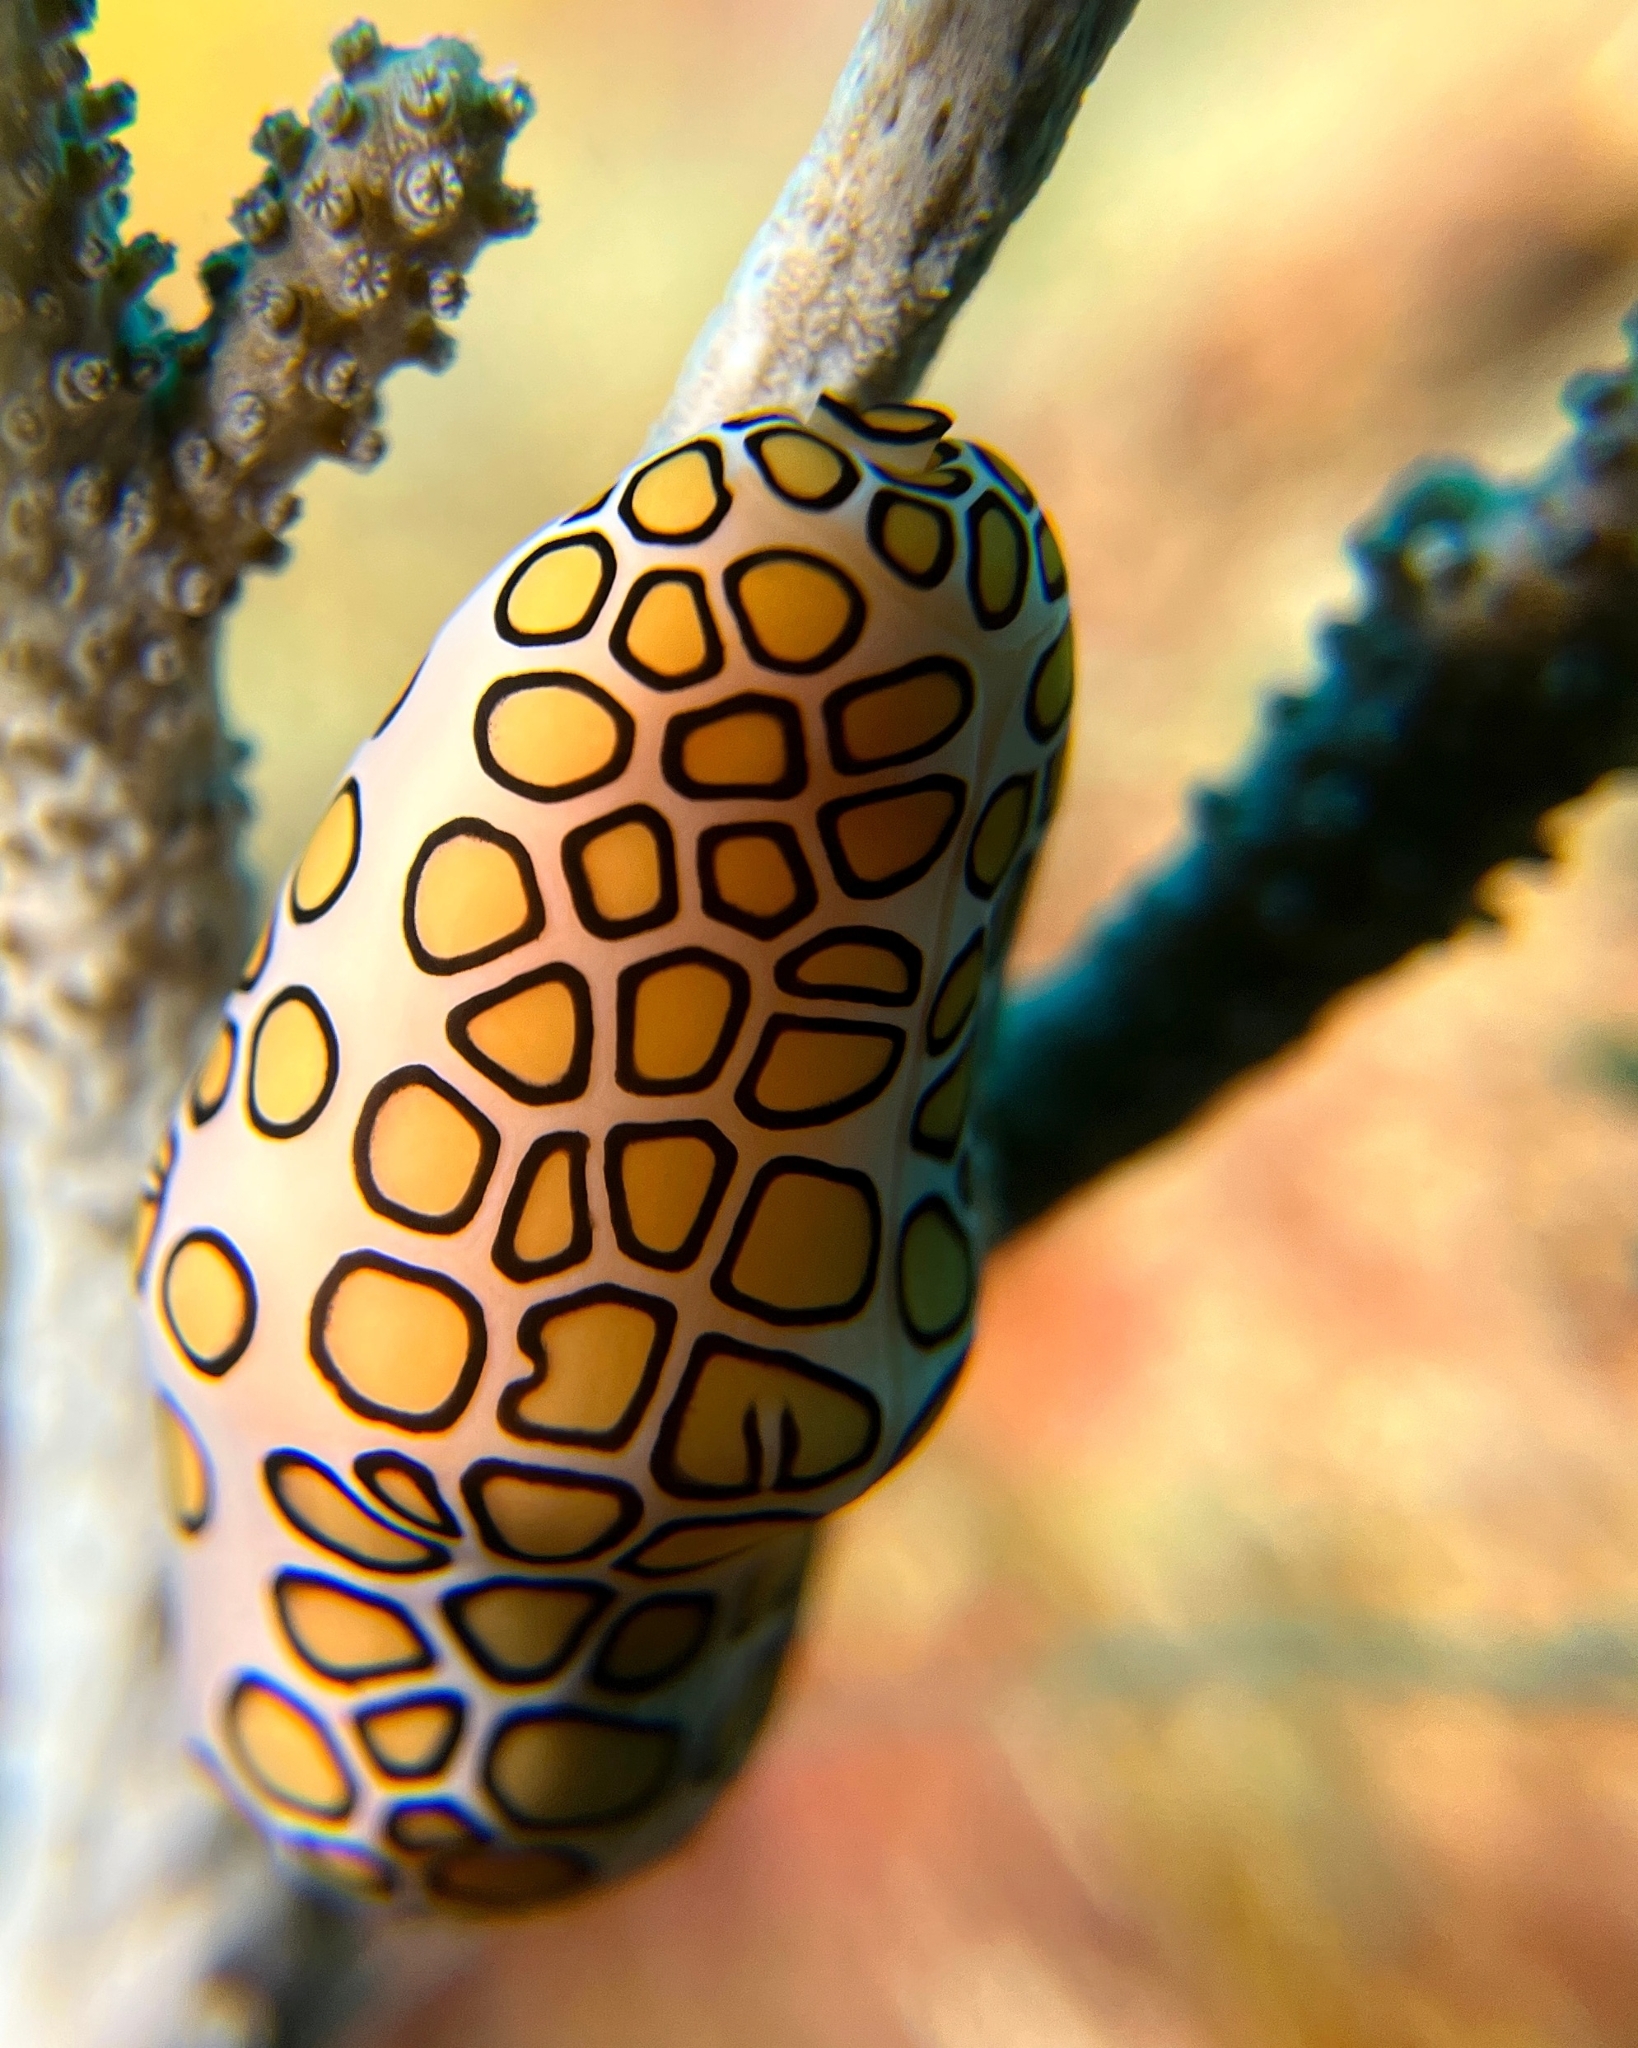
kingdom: Animalia
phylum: Mollusca
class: Gastropoda
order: Littorinimorpha
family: Ovulidae
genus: Cyphoma
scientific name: Cyphoma gibbosum
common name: Flamingo tongue
